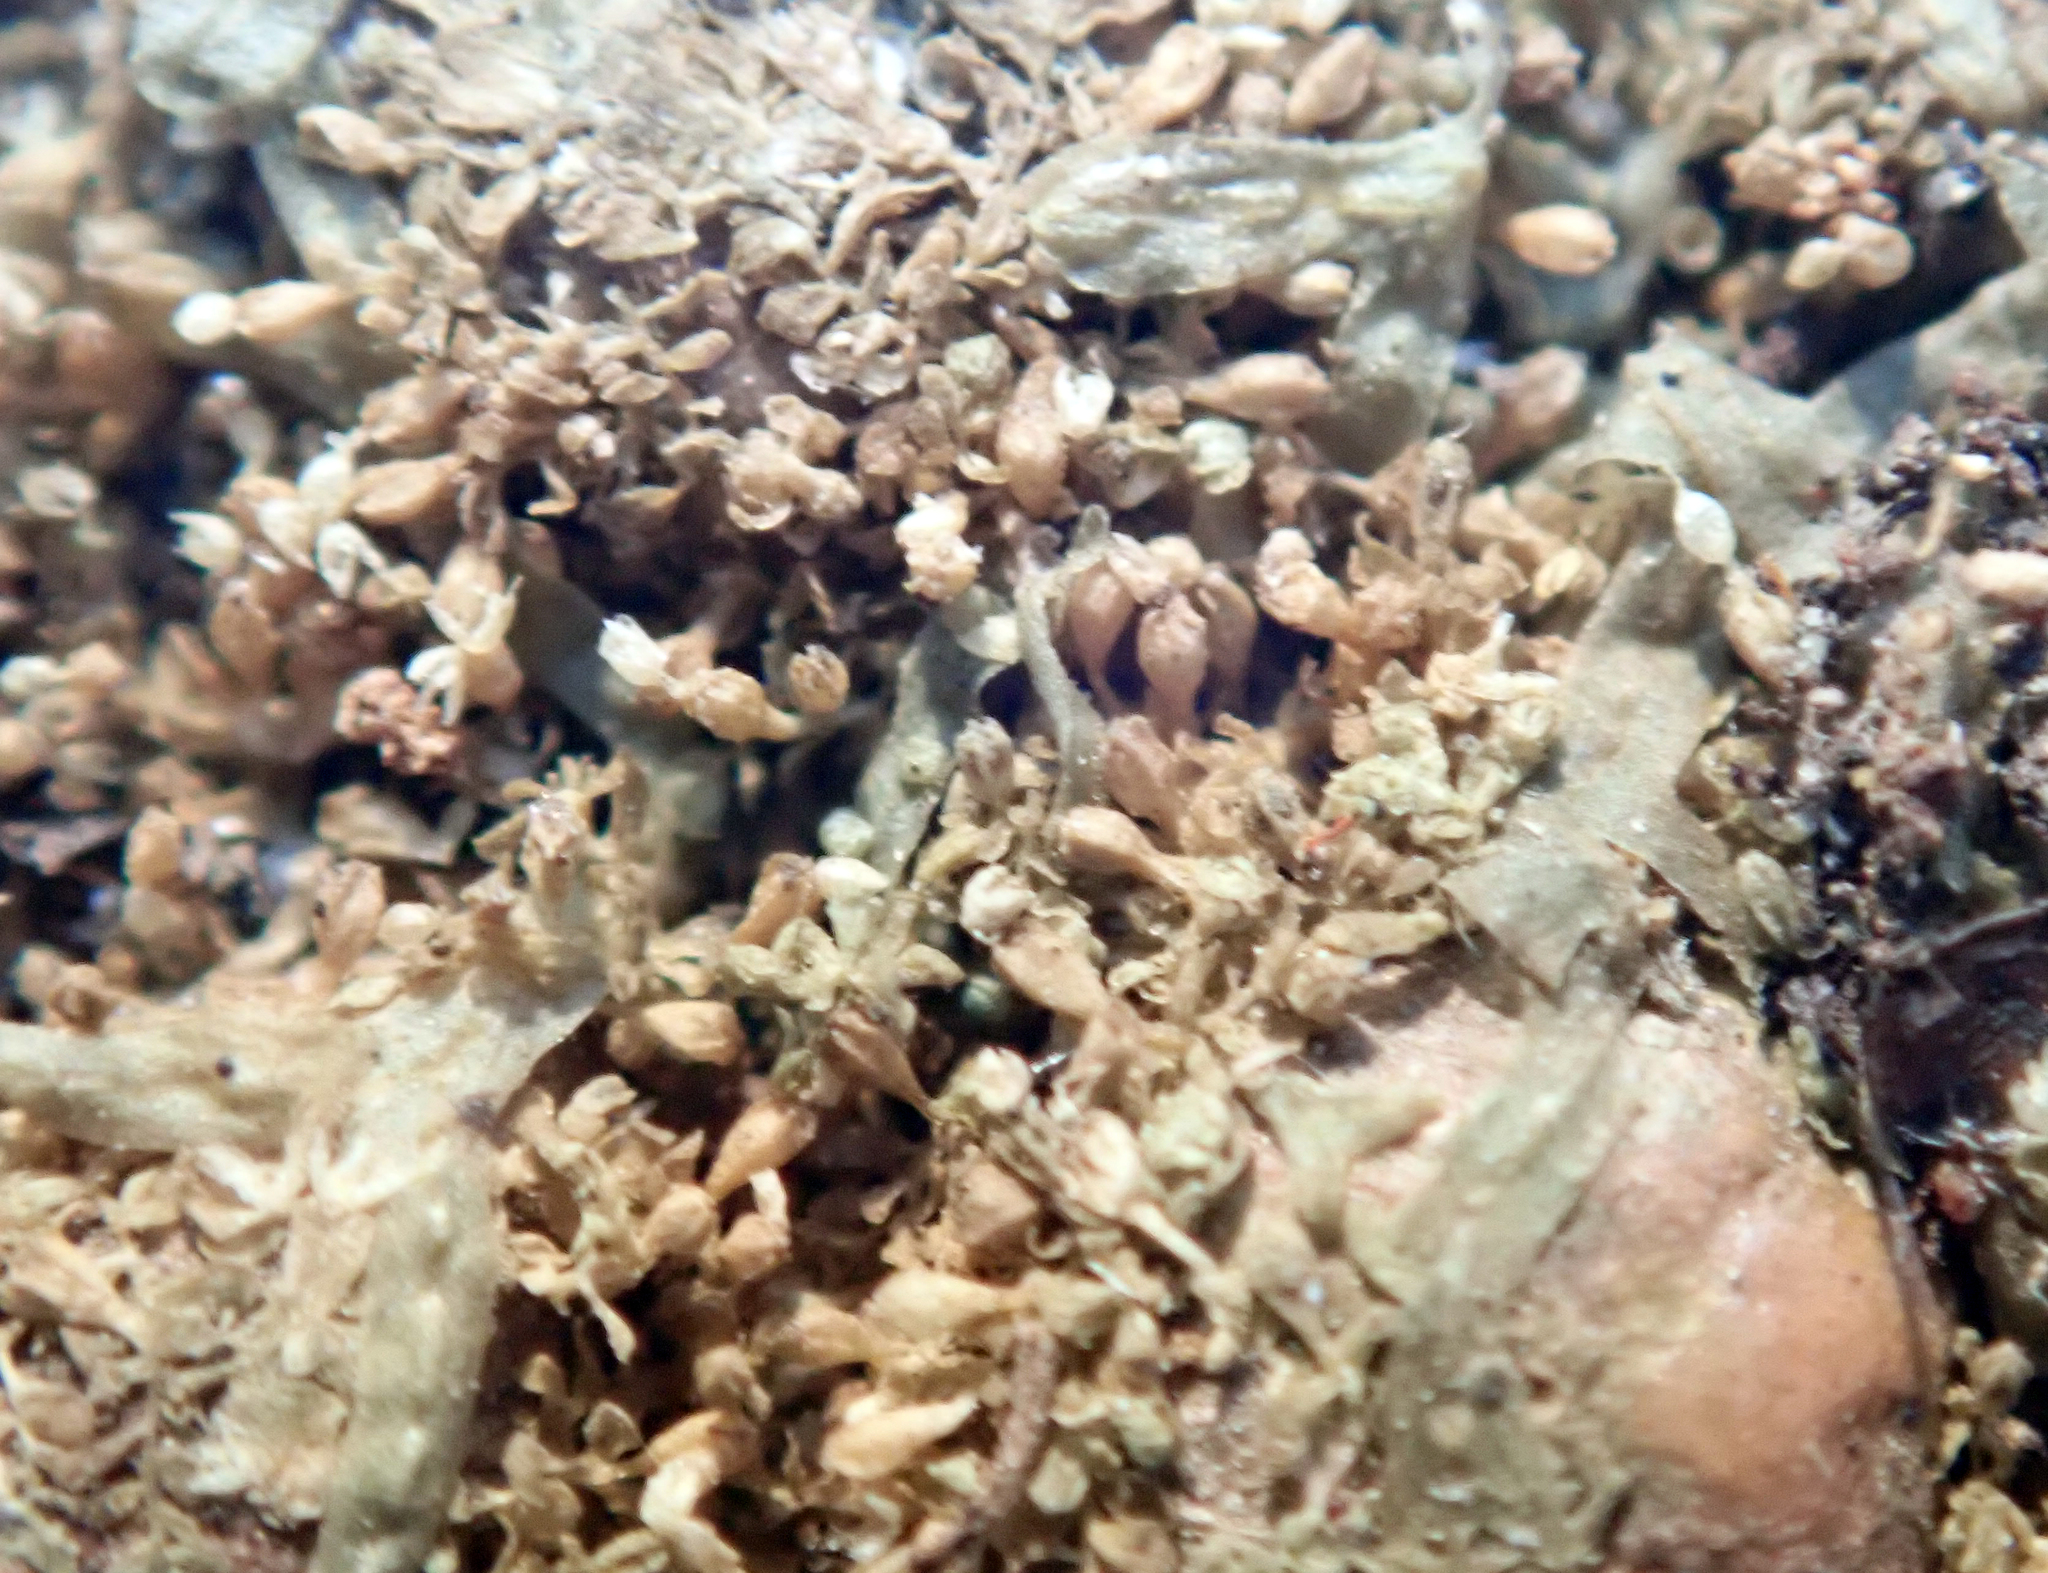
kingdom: Plantae
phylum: Marchantiophyta
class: Jungermanniopsida
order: Porellales
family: Lejeuneaceae
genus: Siphonolejeunea
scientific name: Siphonolejeunea nudipes
